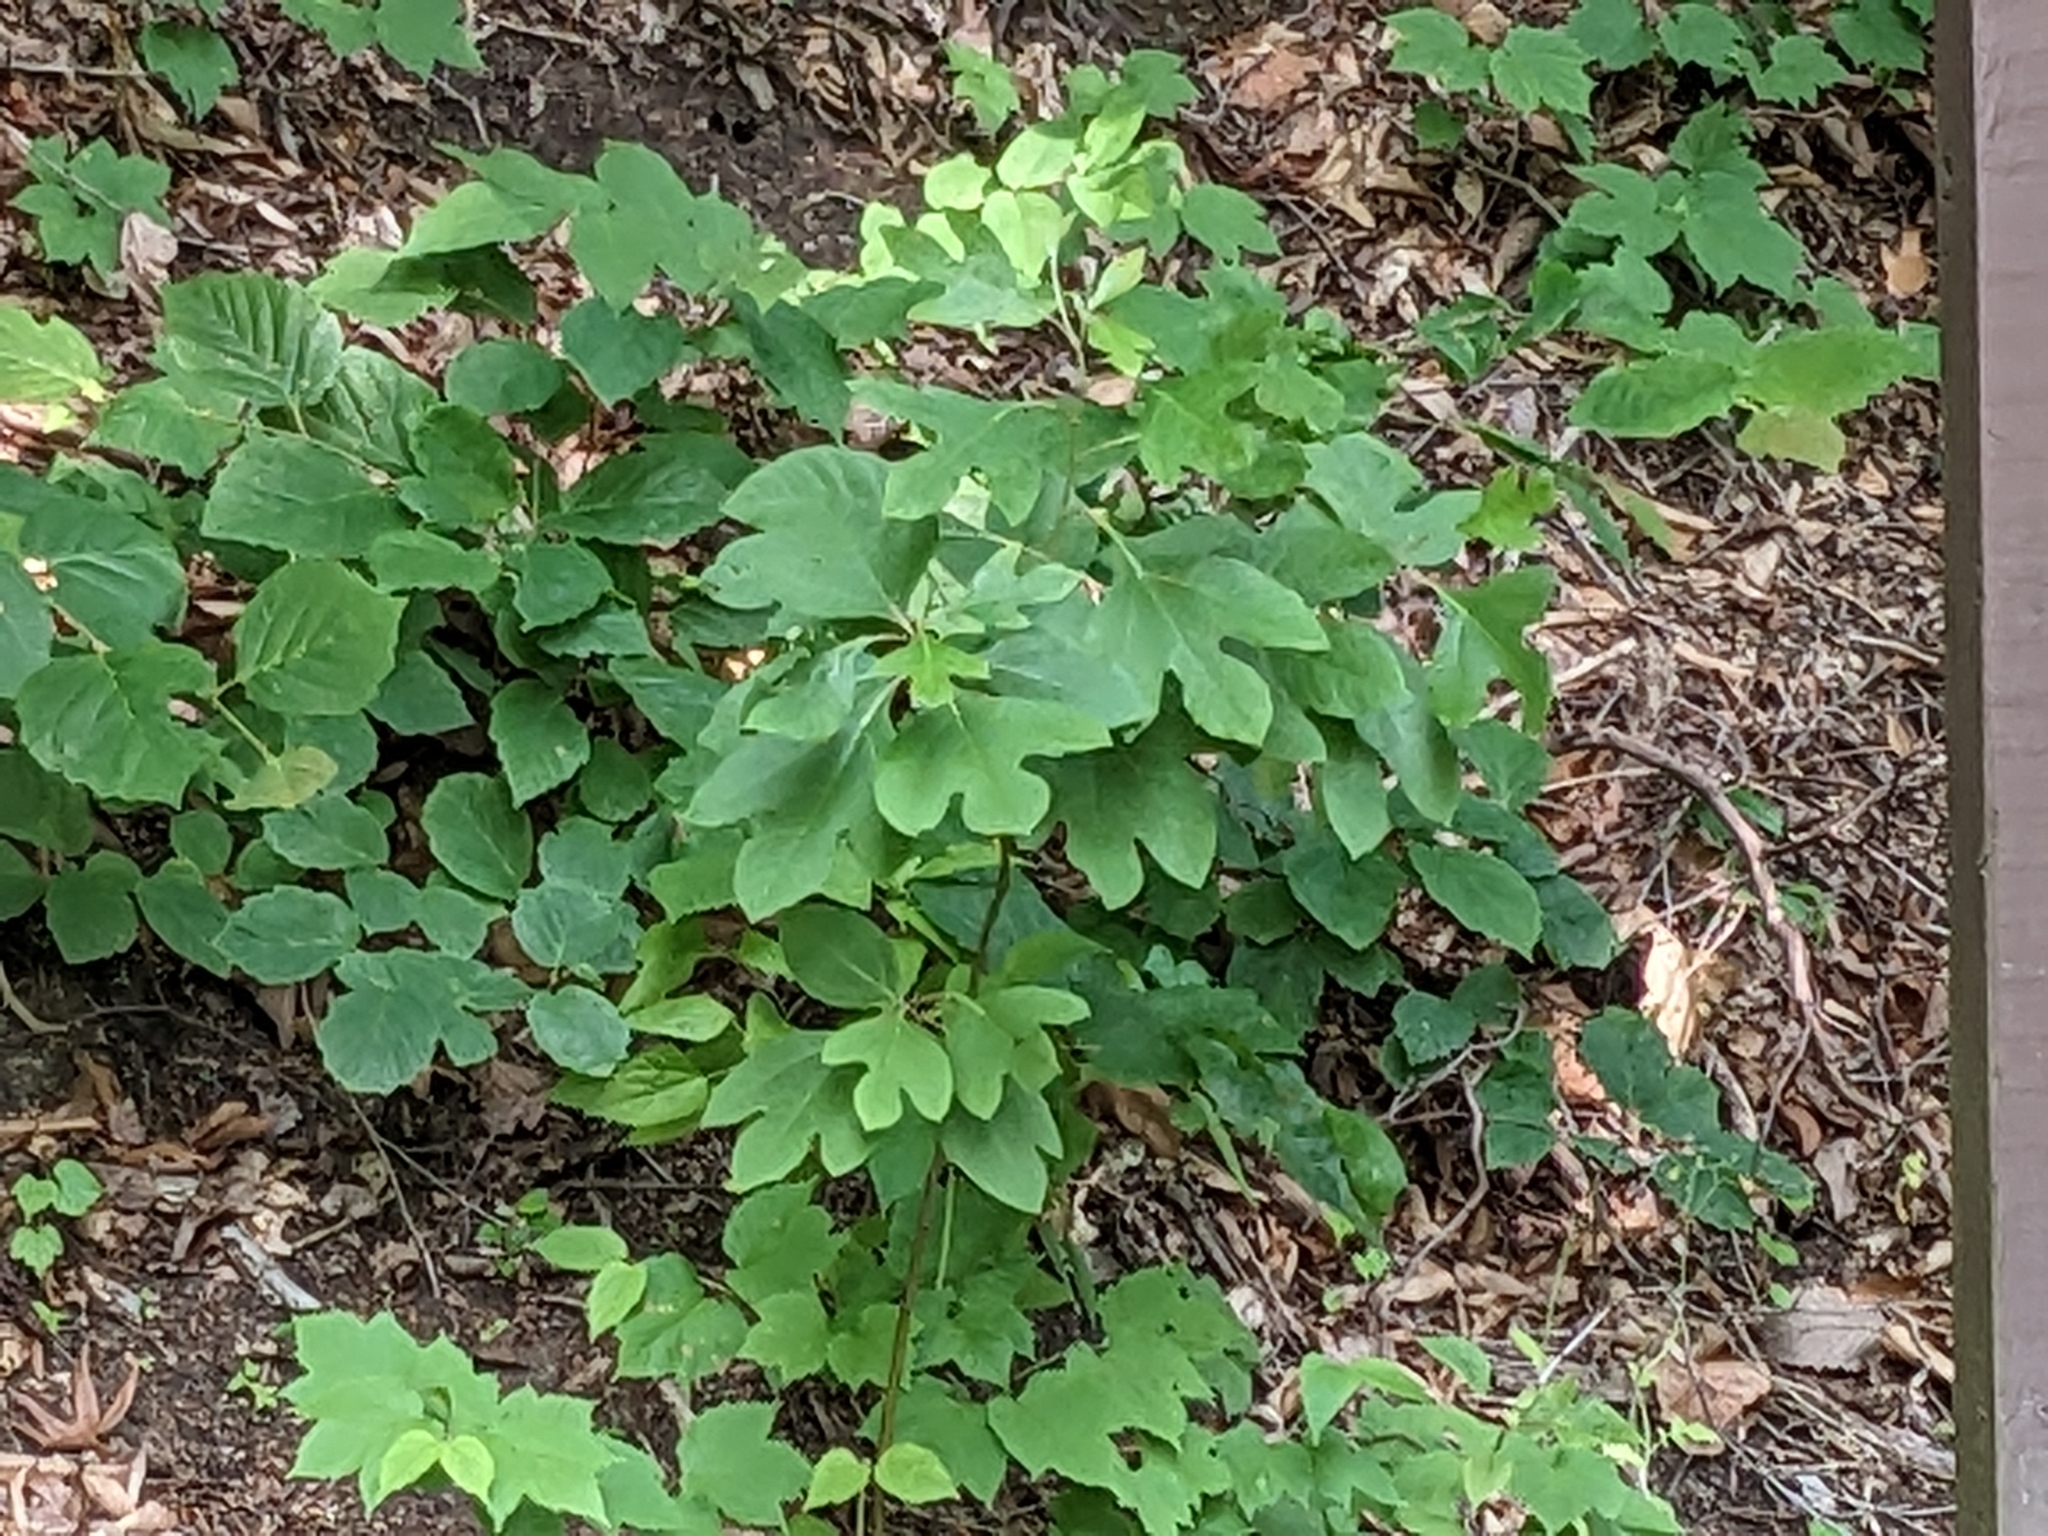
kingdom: Plantae
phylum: Tracheophyta
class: Magnoliopsida
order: Laurales
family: Lauraceae
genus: Sassafras
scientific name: Sassafras albidum
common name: Sassafras
